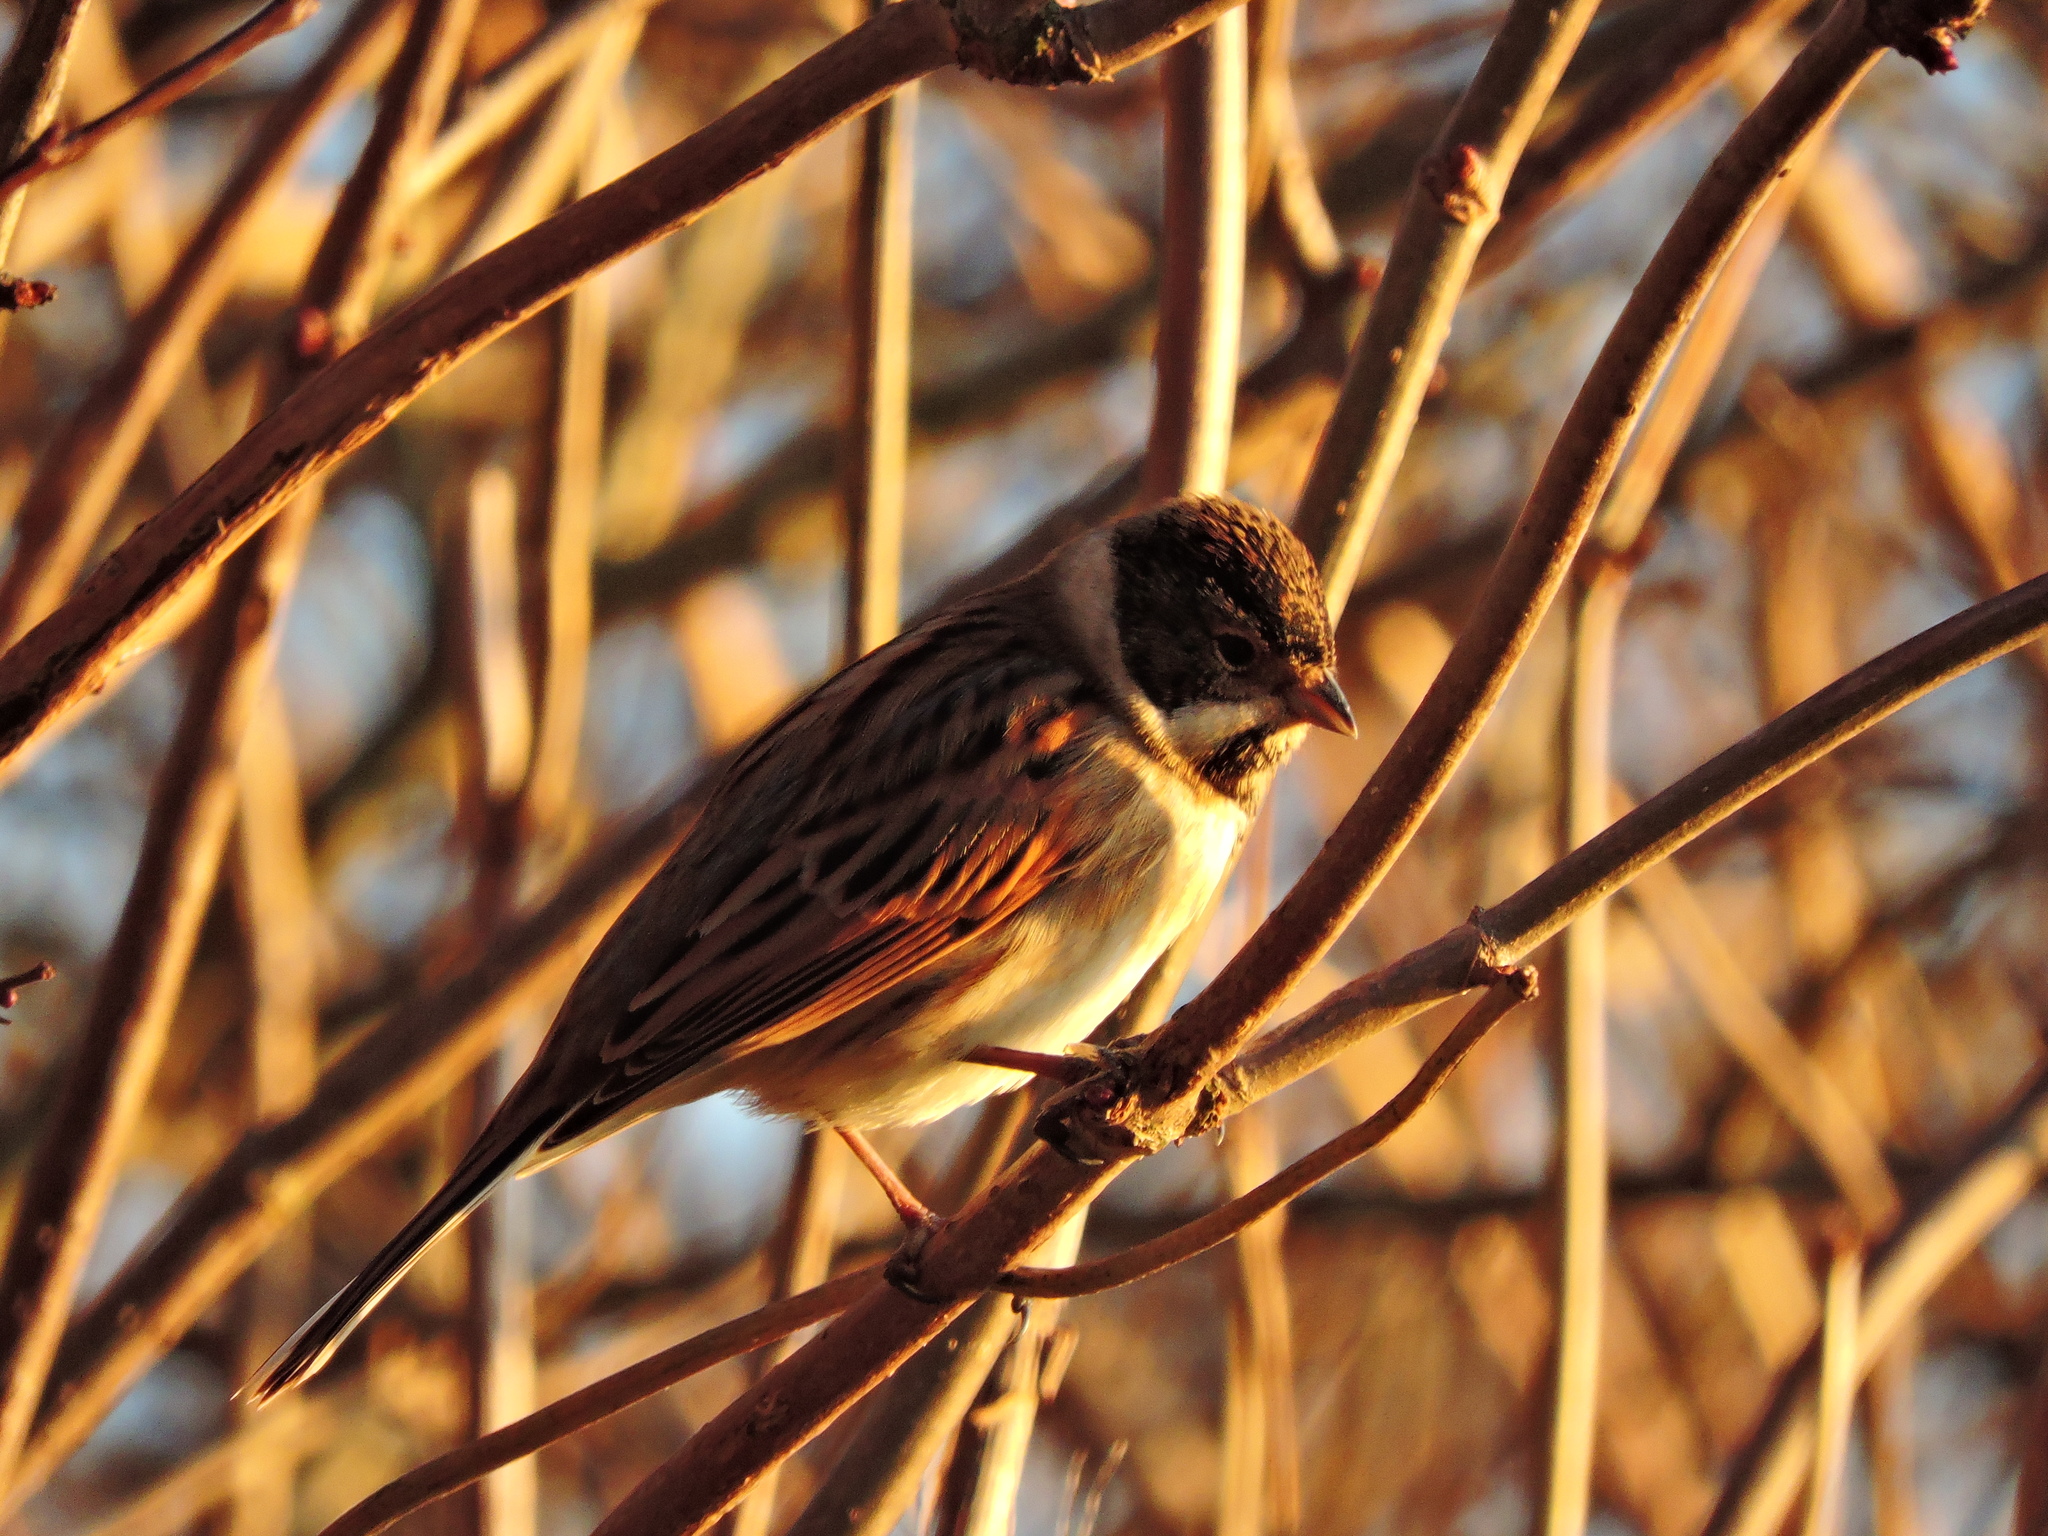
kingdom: Animalia
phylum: Chordata
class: Aves
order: Passeriformes
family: Emberizidae
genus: Emberiza
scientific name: Emberiza schoeniclus
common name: Reed bunting
